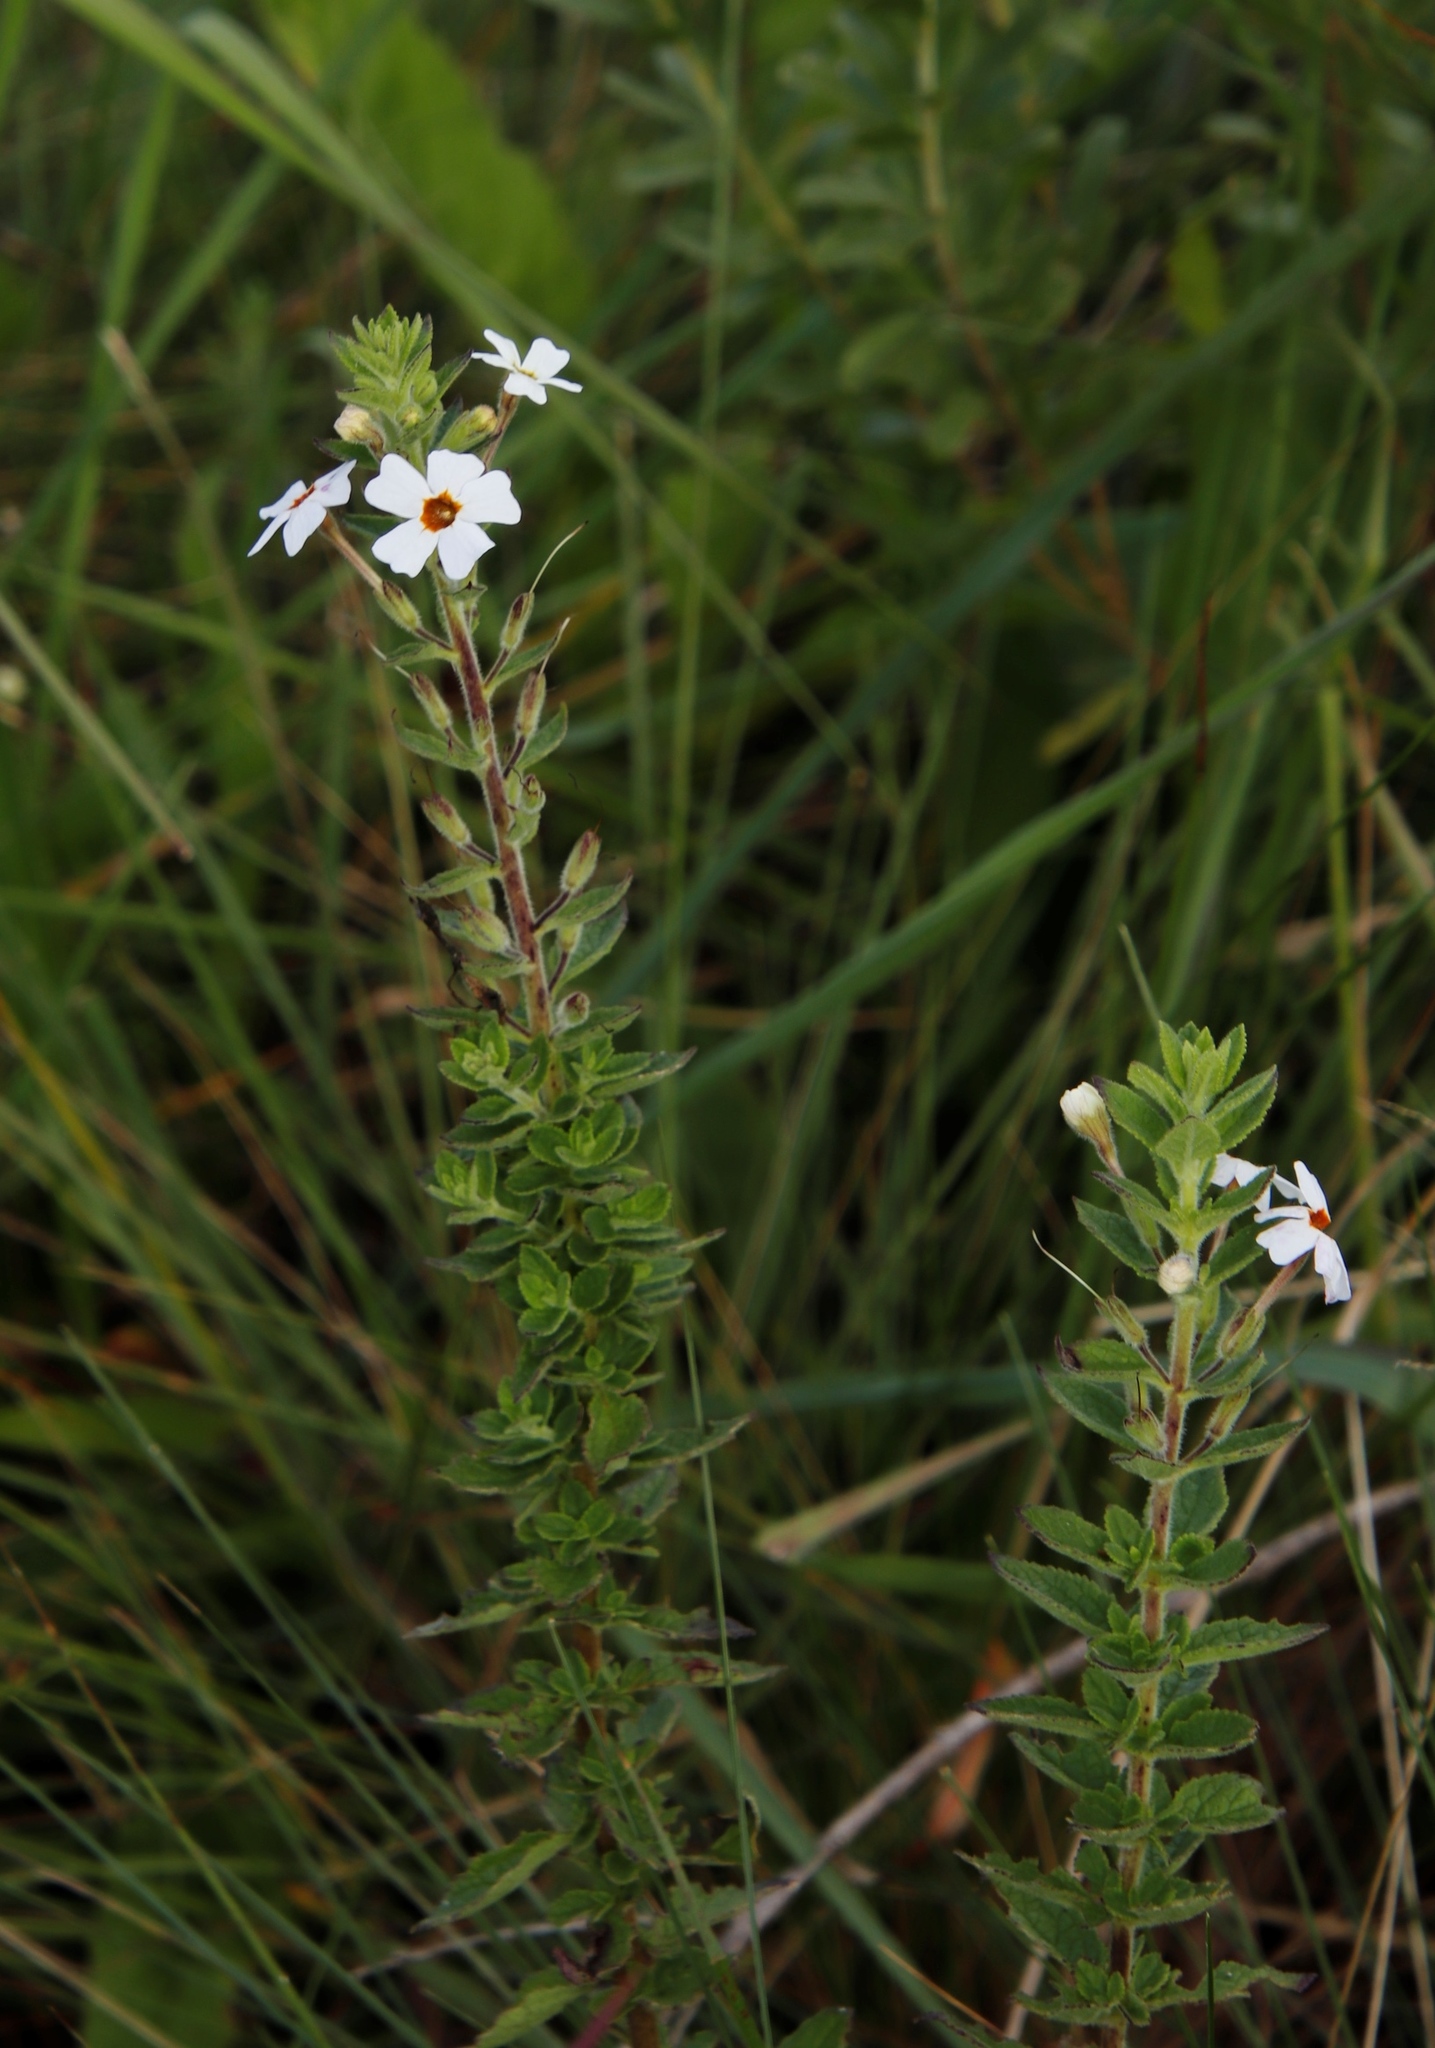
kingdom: Plantae
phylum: Tracheophyta
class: Magnoliopsida
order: Lamiales
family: Scrophulariaceae
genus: Jamesbrittenia
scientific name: Jamesbrittenia carvalhoi
